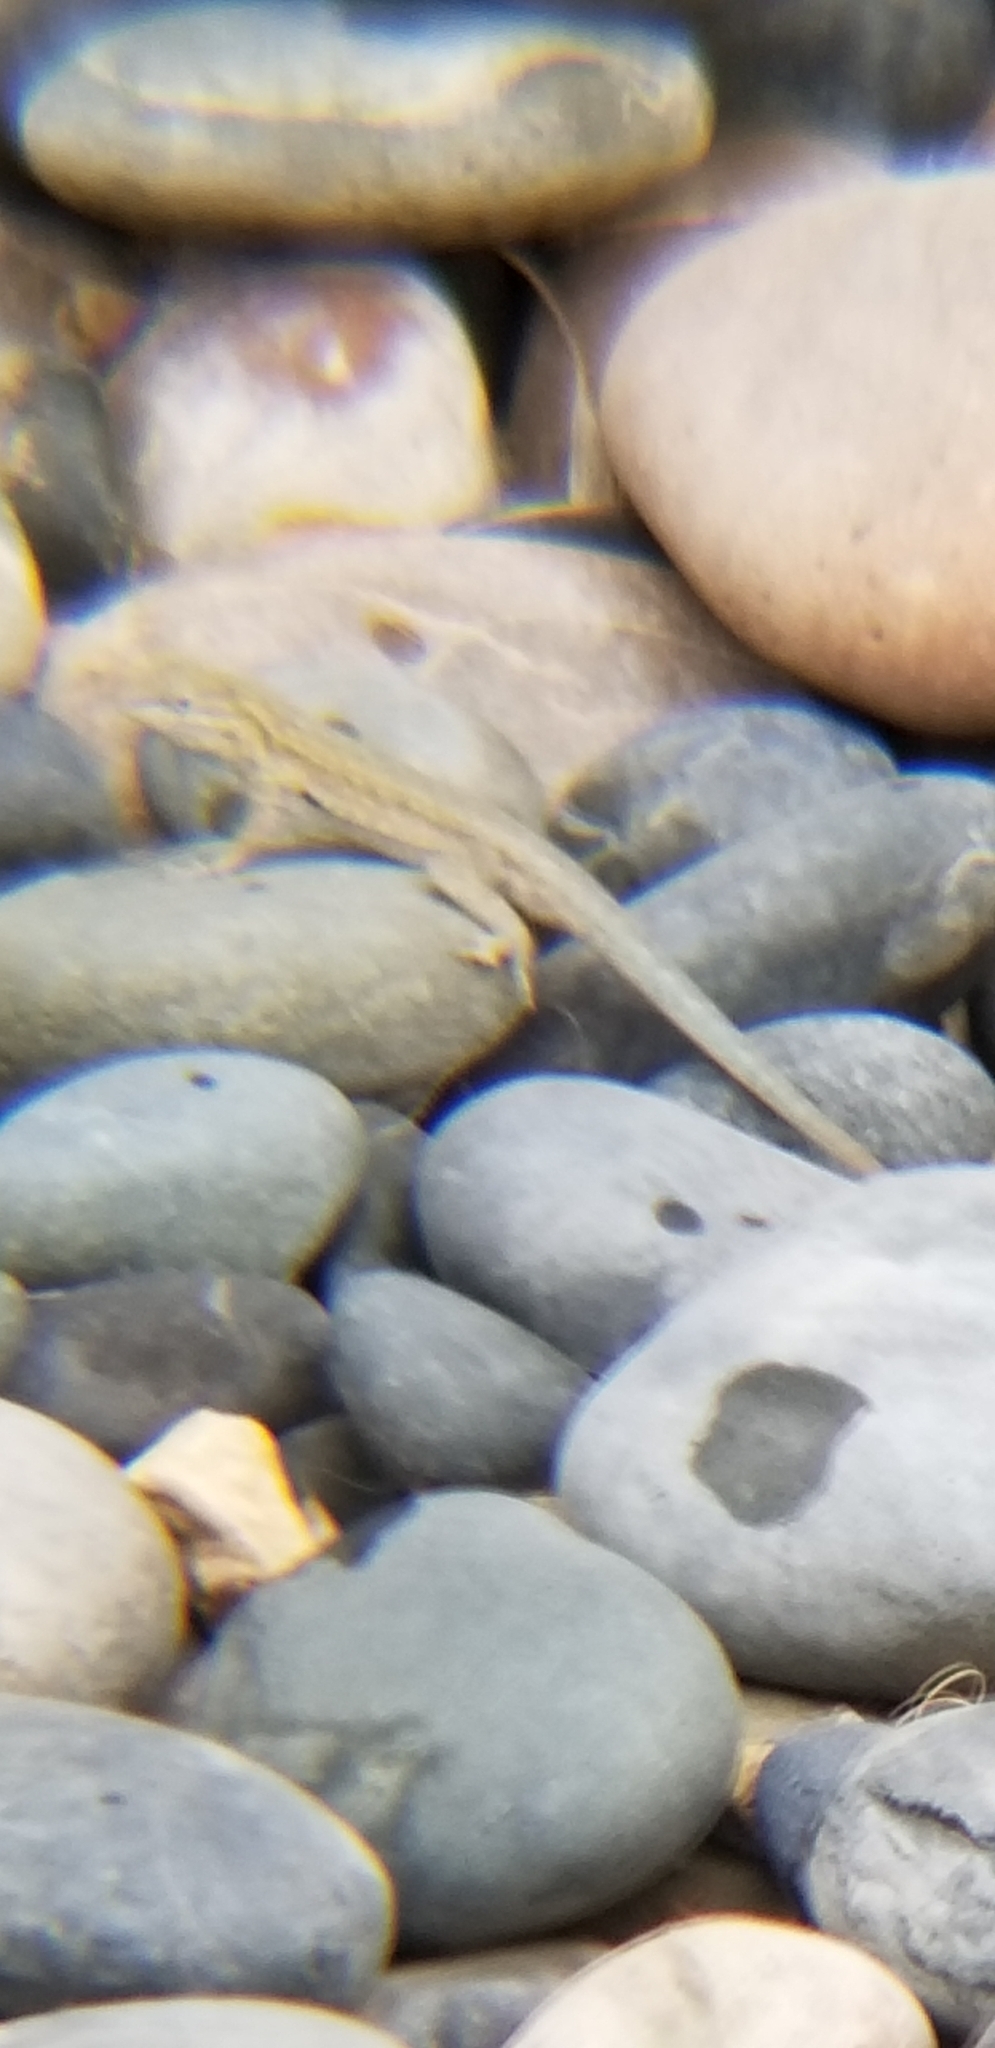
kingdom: Animalia
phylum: Chordata
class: Squamata
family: Phrynosomatidae
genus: Uta
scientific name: Uta stansburiana
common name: Side-blotched lizard
